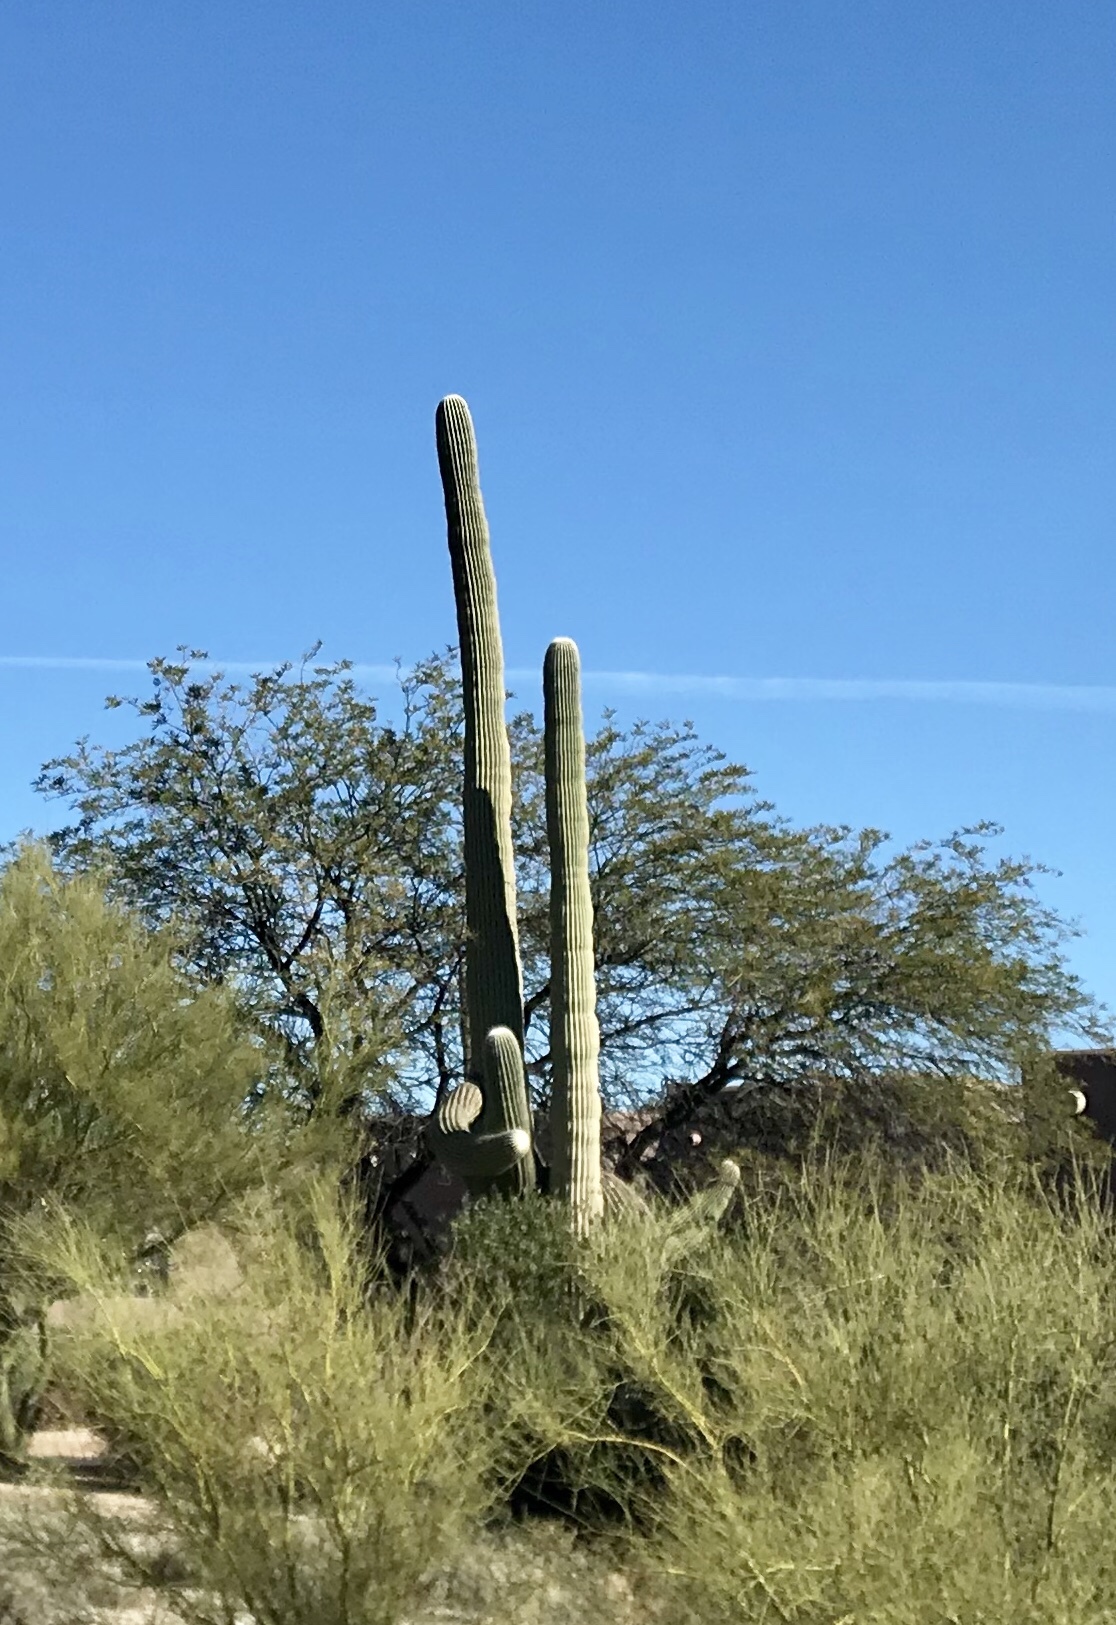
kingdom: Plantae
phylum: Tracheophyta
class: Magnoliopsida
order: Caryophyllales
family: Cactaceae
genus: Carnegiea
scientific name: Carnegiea gigantea
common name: Saguaro
